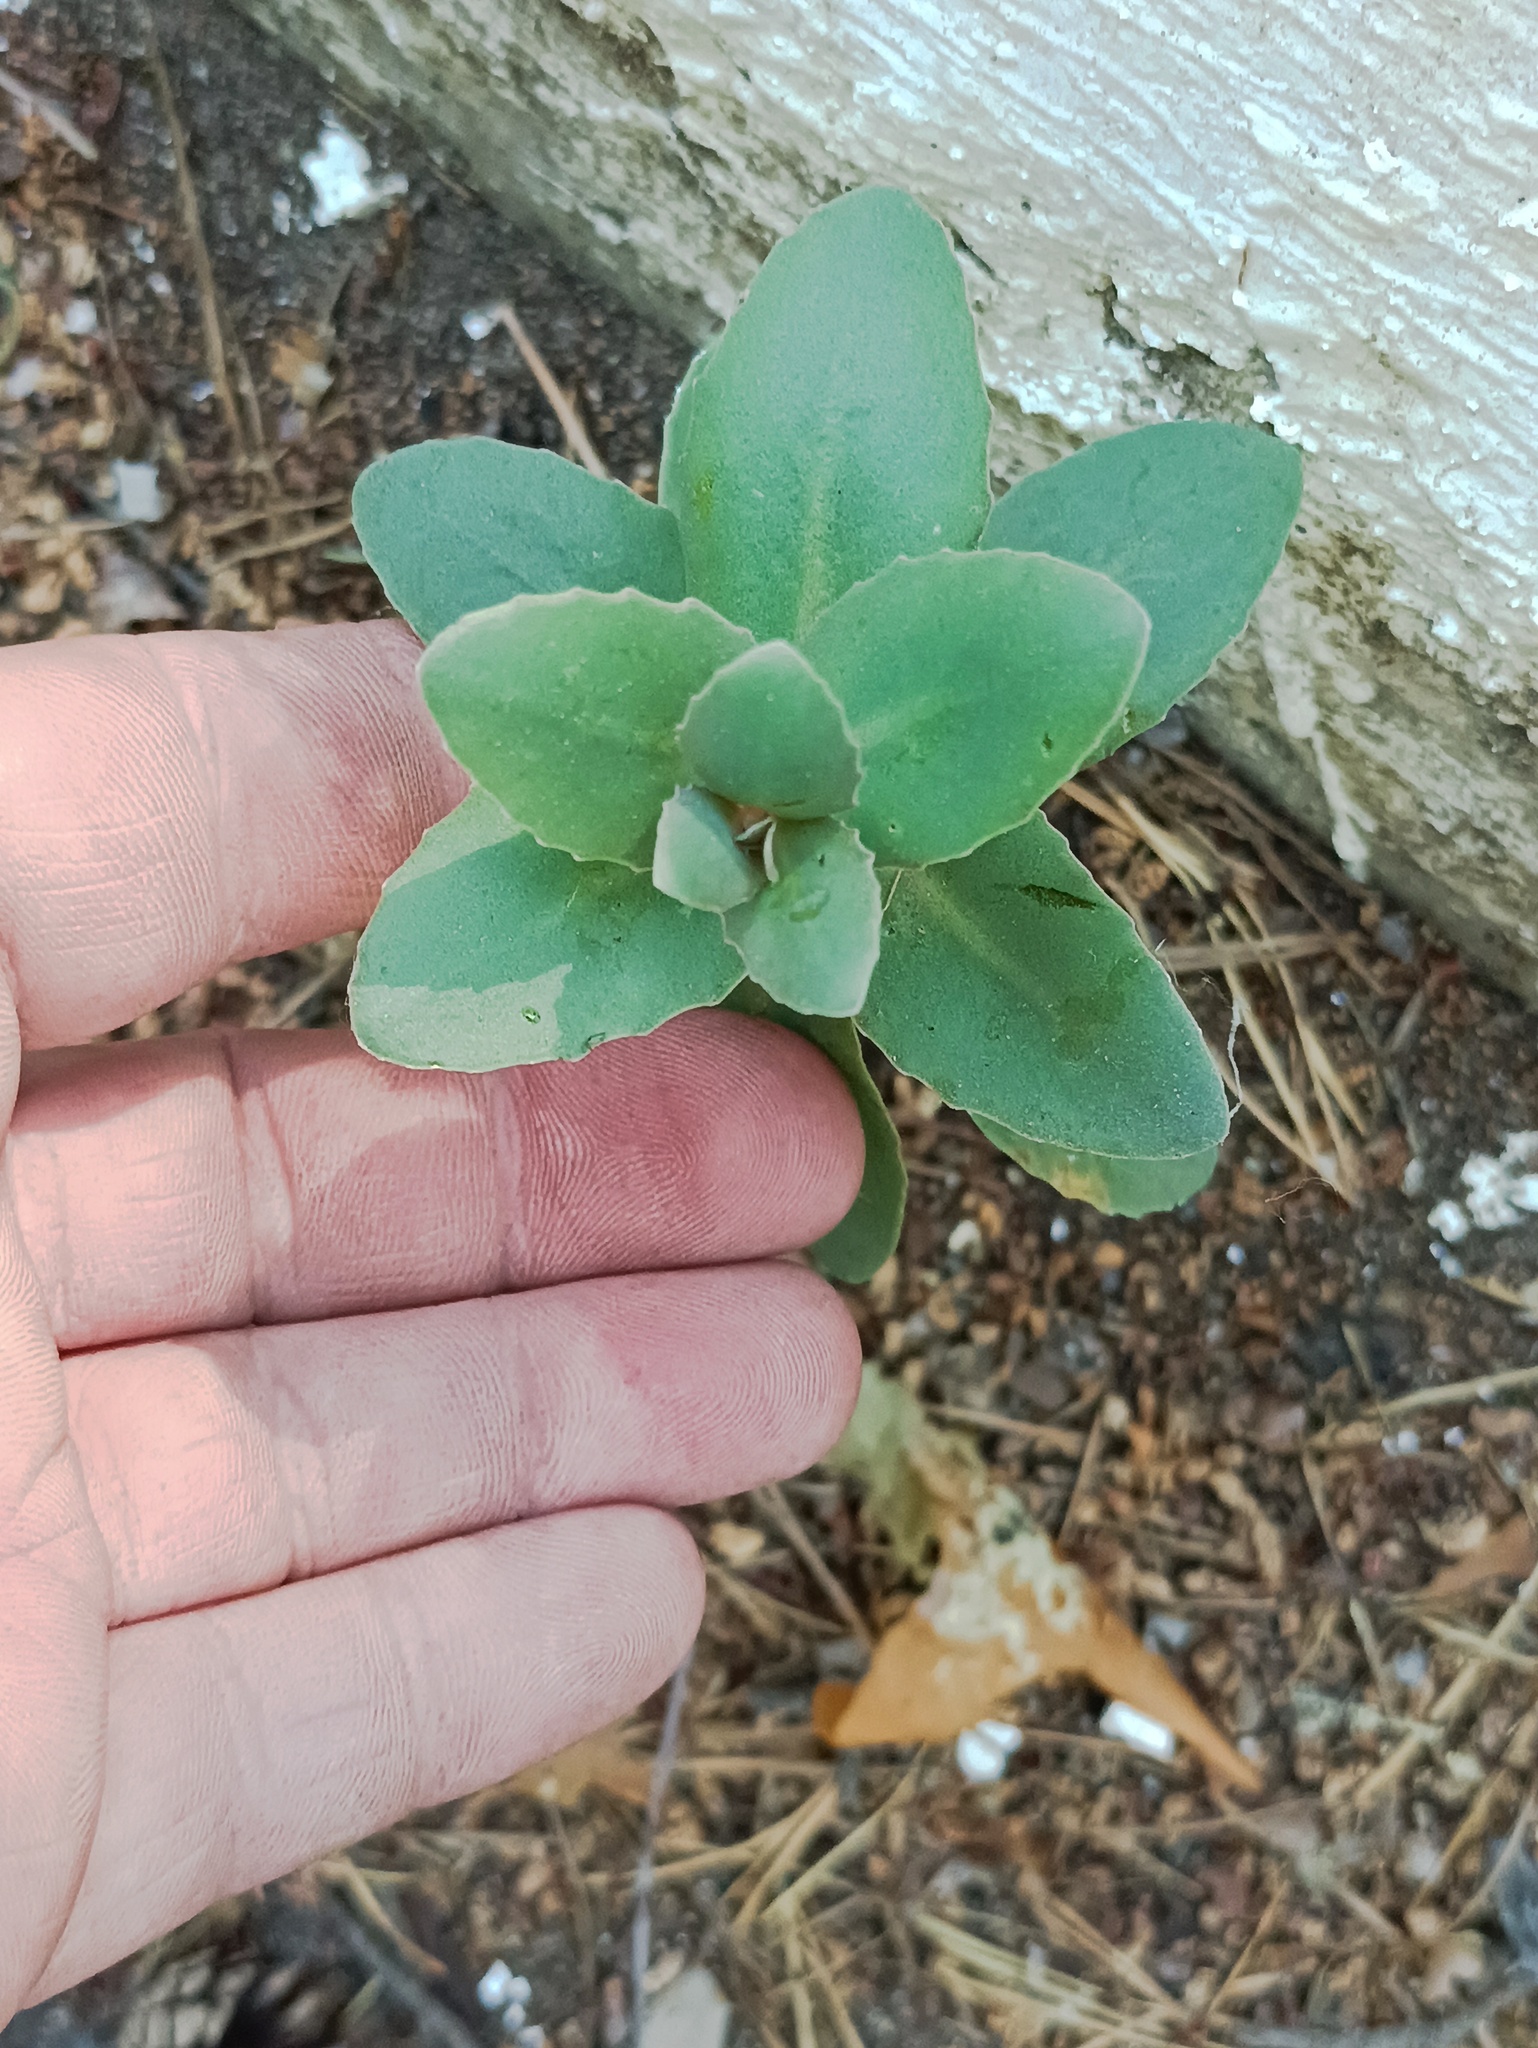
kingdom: Plantae
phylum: Tracheophyta
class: Magnoliopsida
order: Saxifragales
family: Crassulaceae
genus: Hylotelephium
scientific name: Hylotelephium maximum
